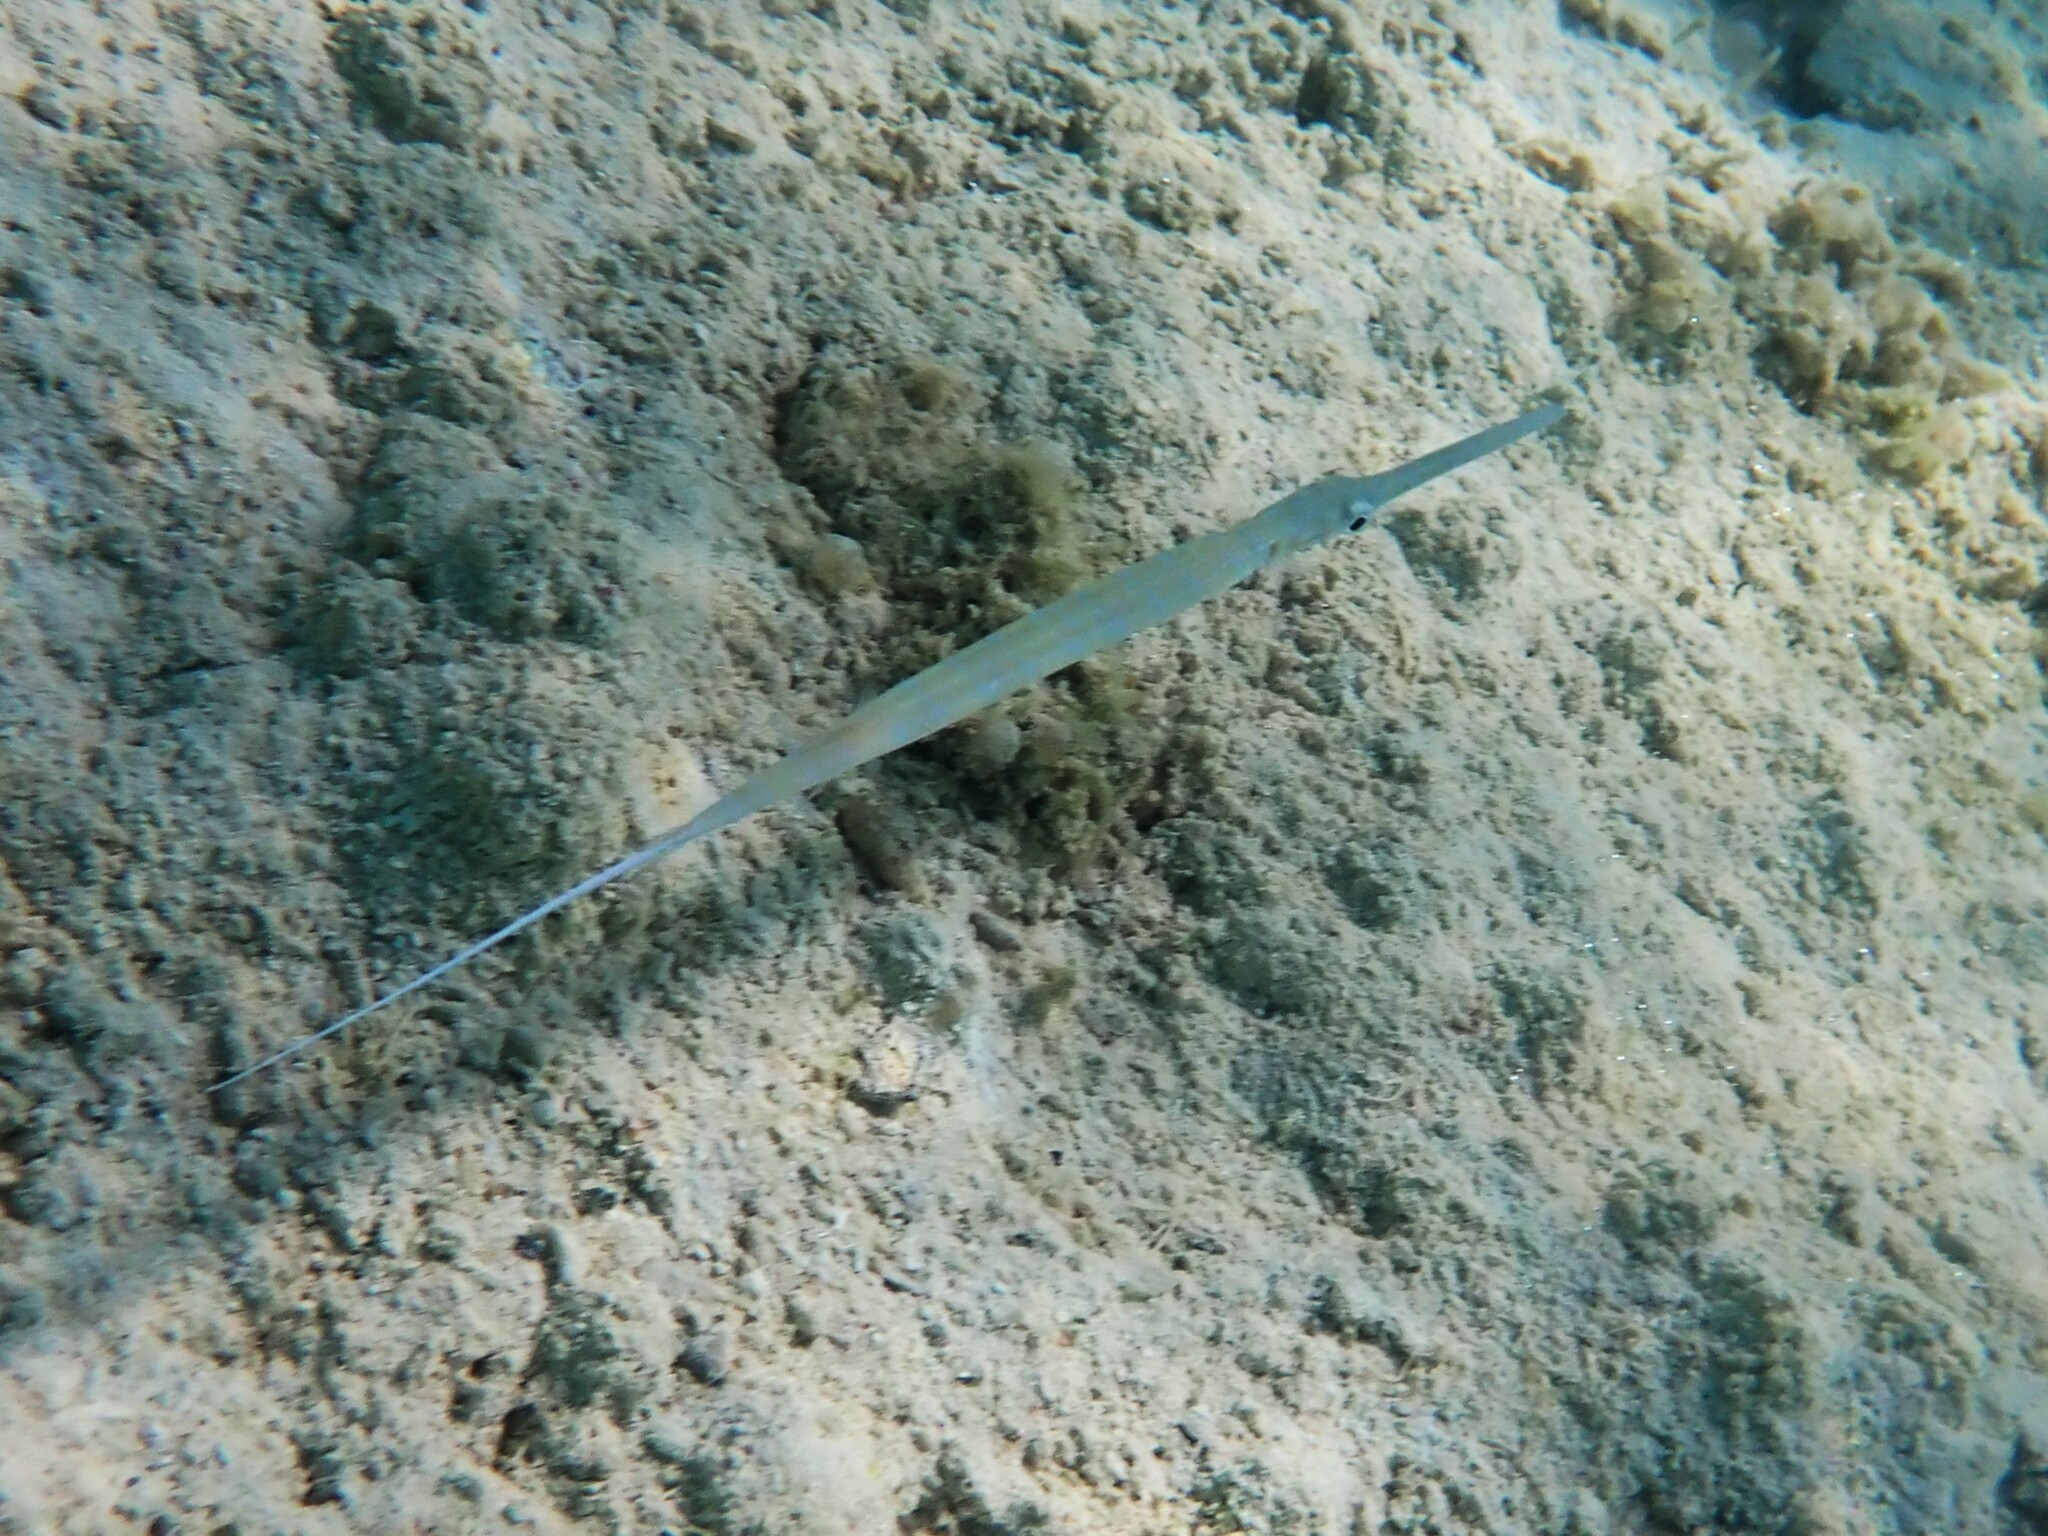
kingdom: Animalia
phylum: Chordata
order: Syngnathiformes
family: Fistulariidae
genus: Fistularia
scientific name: Fistularia commersonii
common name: Bluespotted cornetfish
